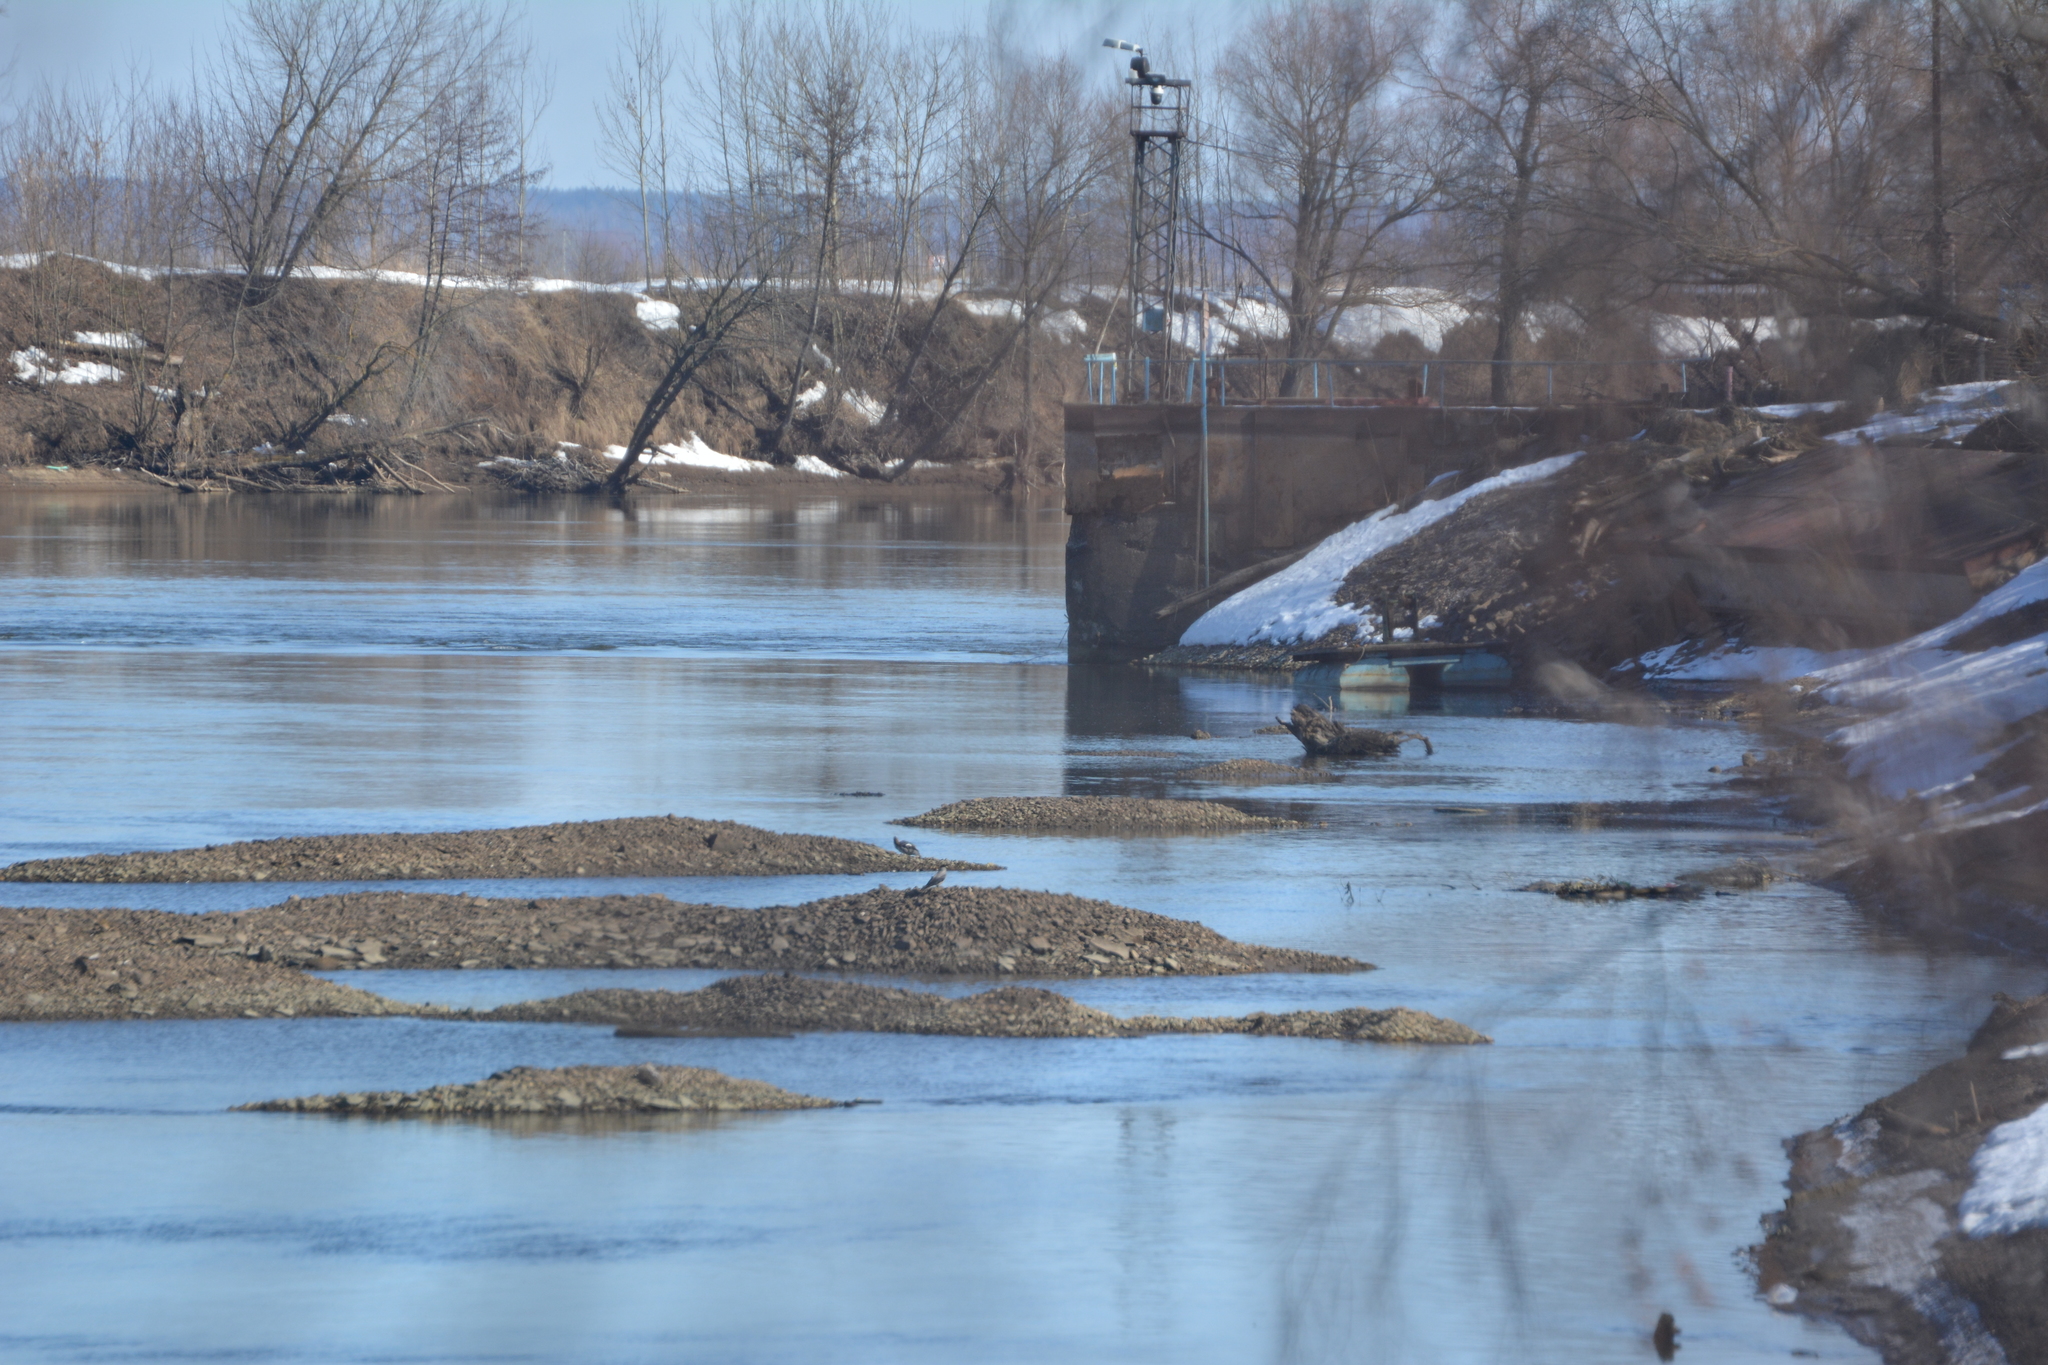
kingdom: Animalia
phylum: Chordata
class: Aves
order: Anseriformes
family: Anatidae
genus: Mergus
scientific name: Mergus merganser
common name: Common merganser
